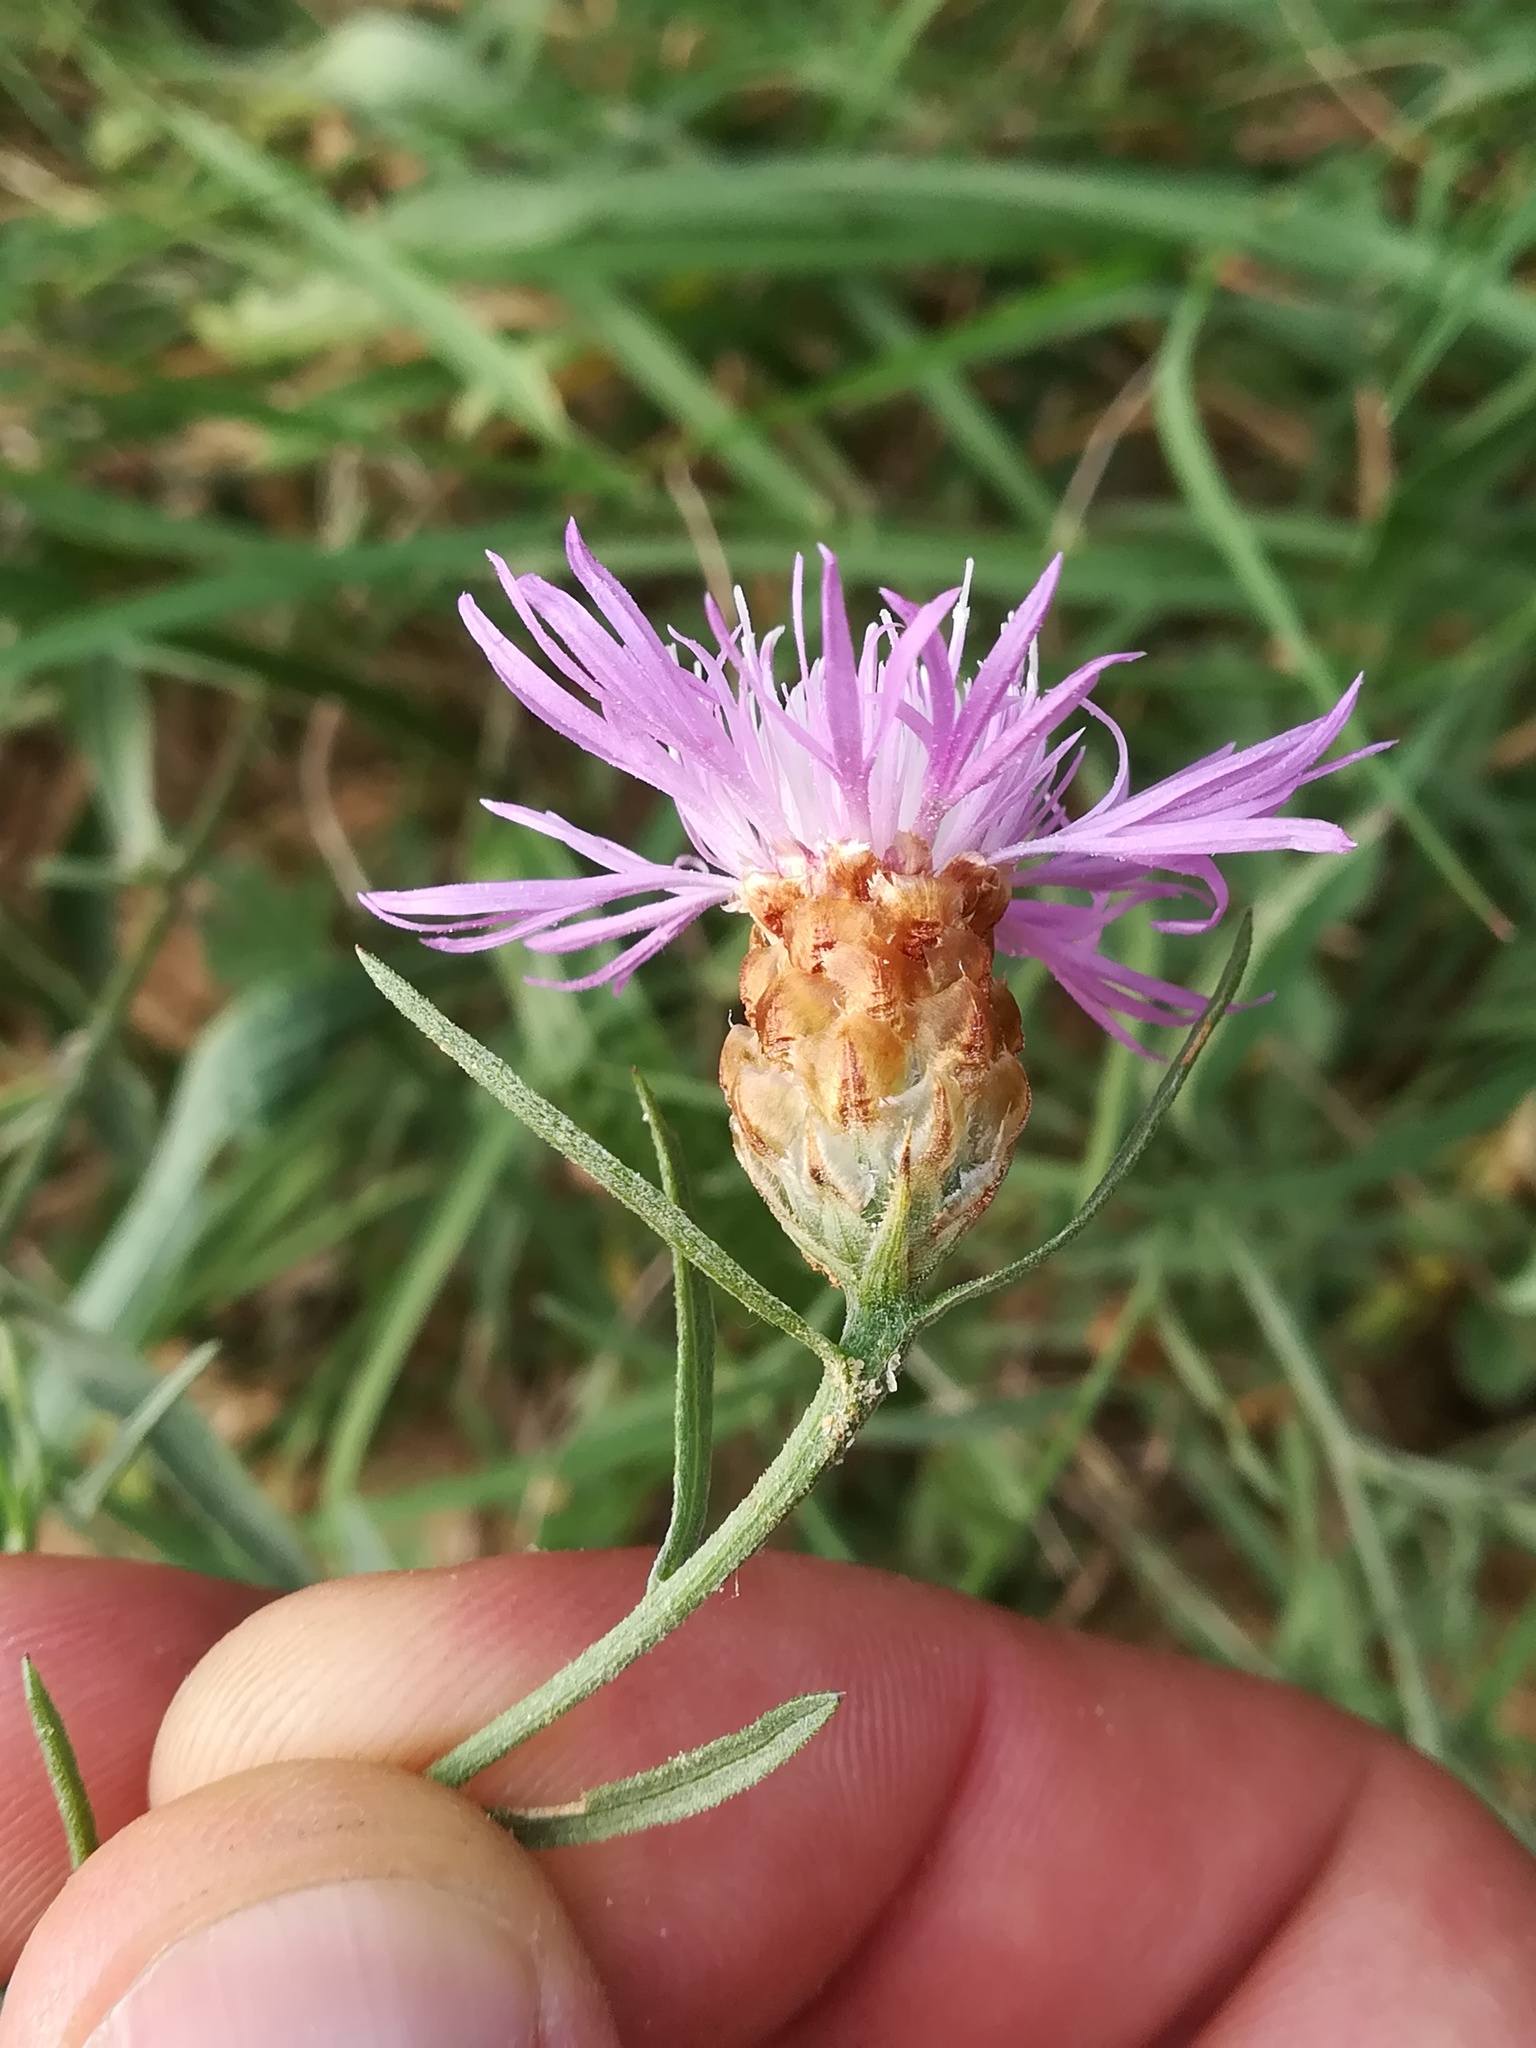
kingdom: Plantae
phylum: Tracheophyta
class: Magnoliopsida
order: Asterales
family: Asteraceae
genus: Centaurea
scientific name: Centaurea jacea
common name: Brown knapweed
